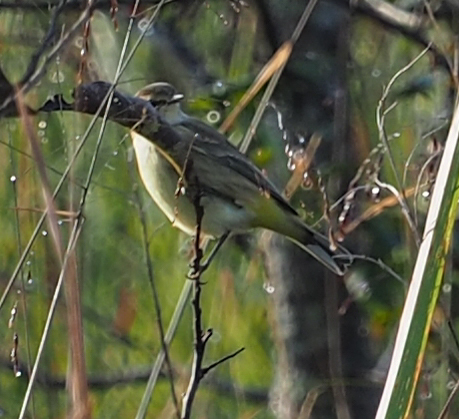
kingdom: Animalia
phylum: Chordata
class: Aves
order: Passeriformes
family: Parulidae
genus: Setophaga
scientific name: Setophaga palmarum
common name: Palm warbler
